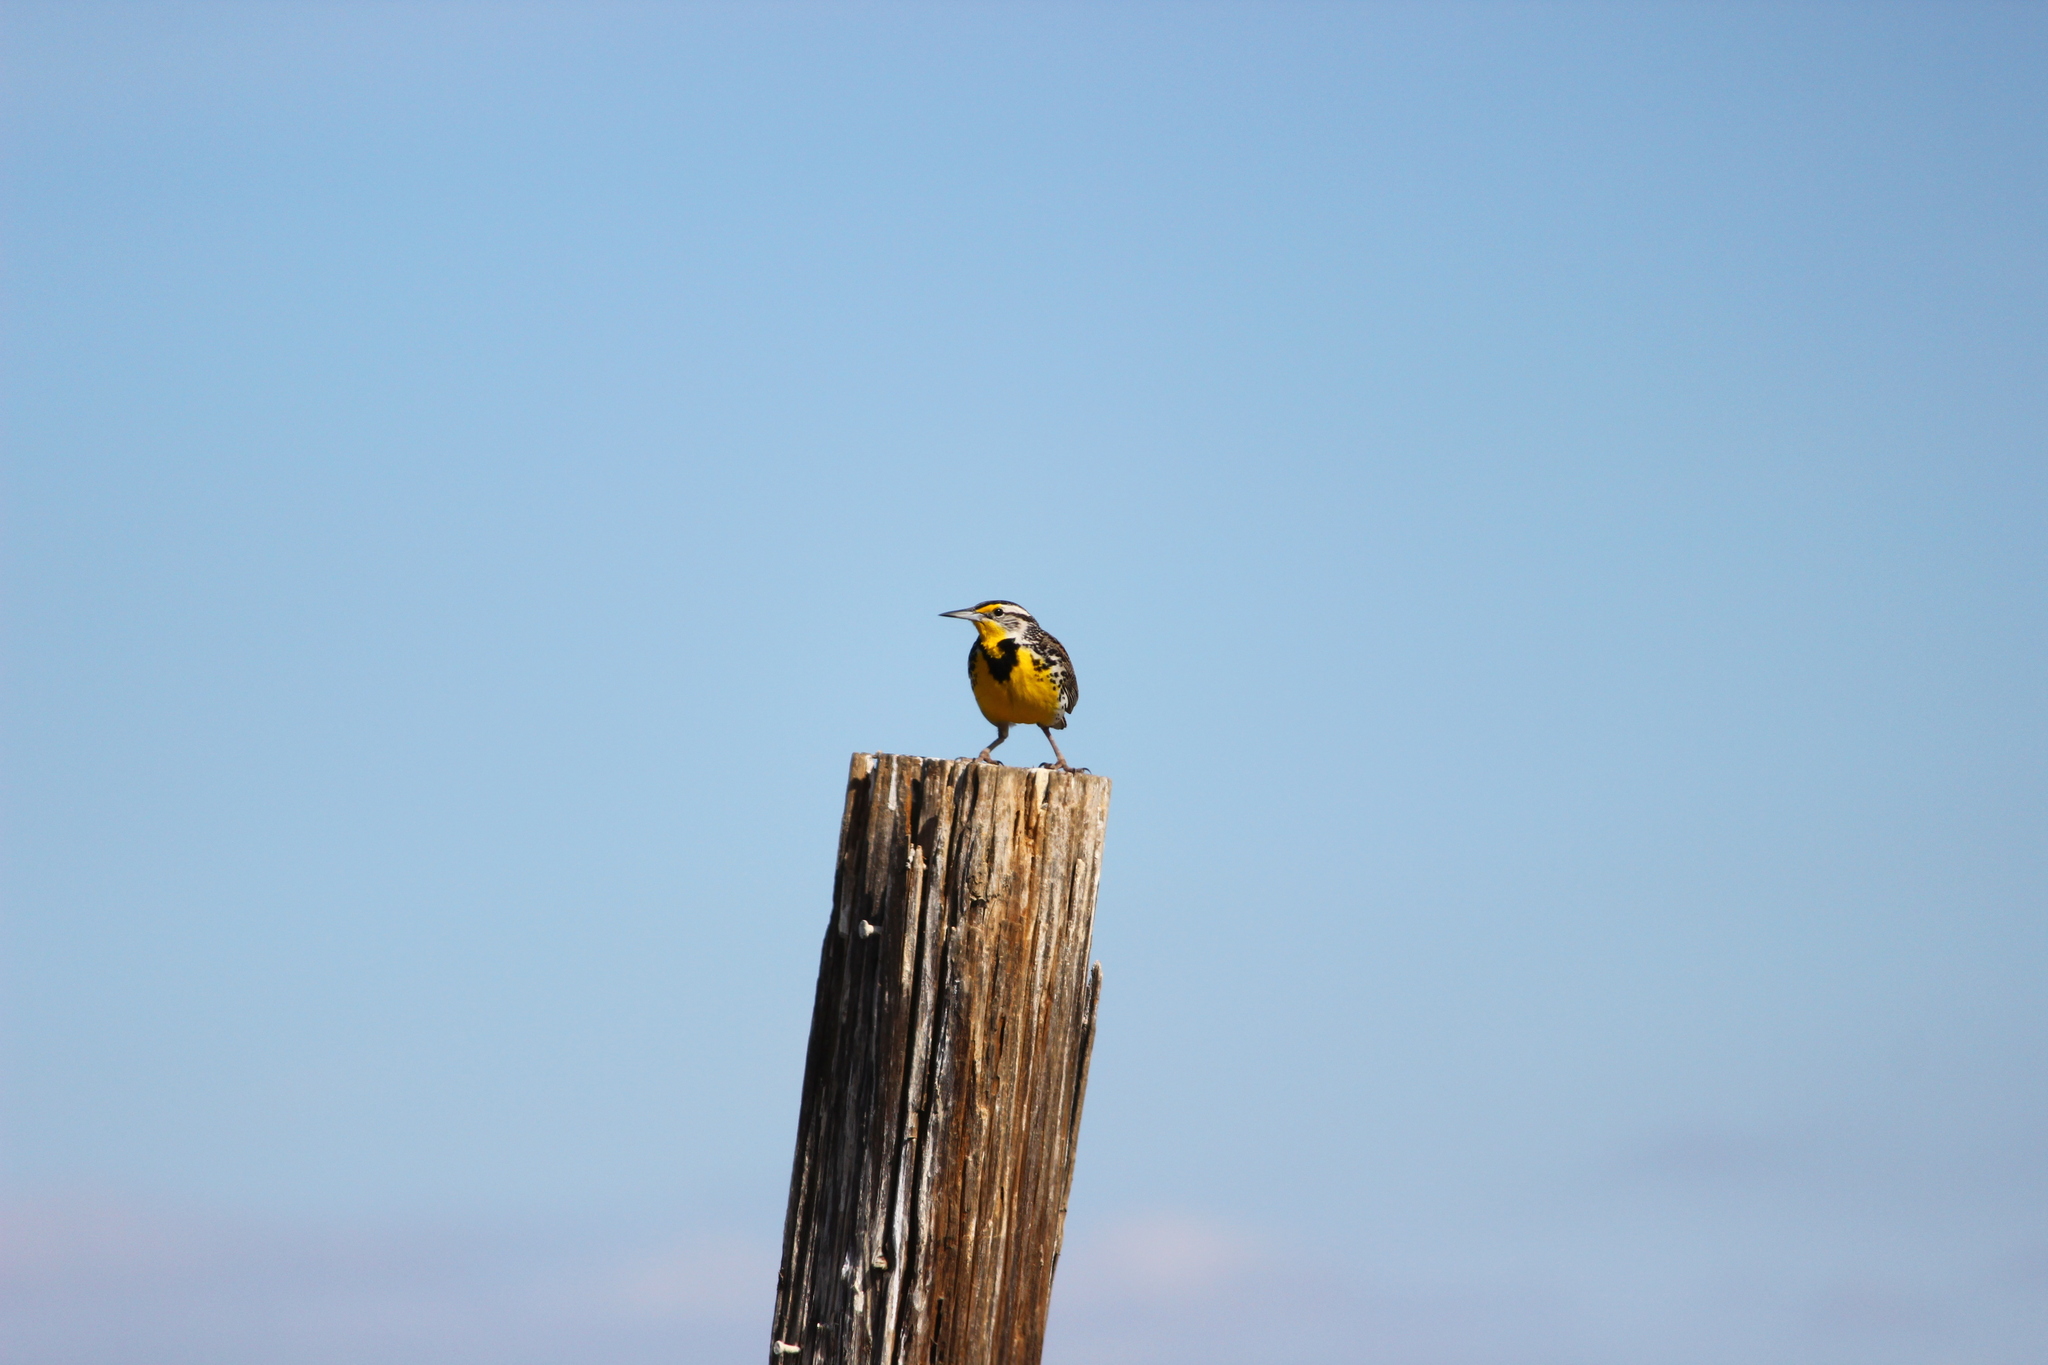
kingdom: Animalia
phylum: Chordata
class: Aves
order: Passeriformes
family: Icteridae
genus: Sturnella
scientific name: Sturnella neglecta
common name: Western meadowlark
